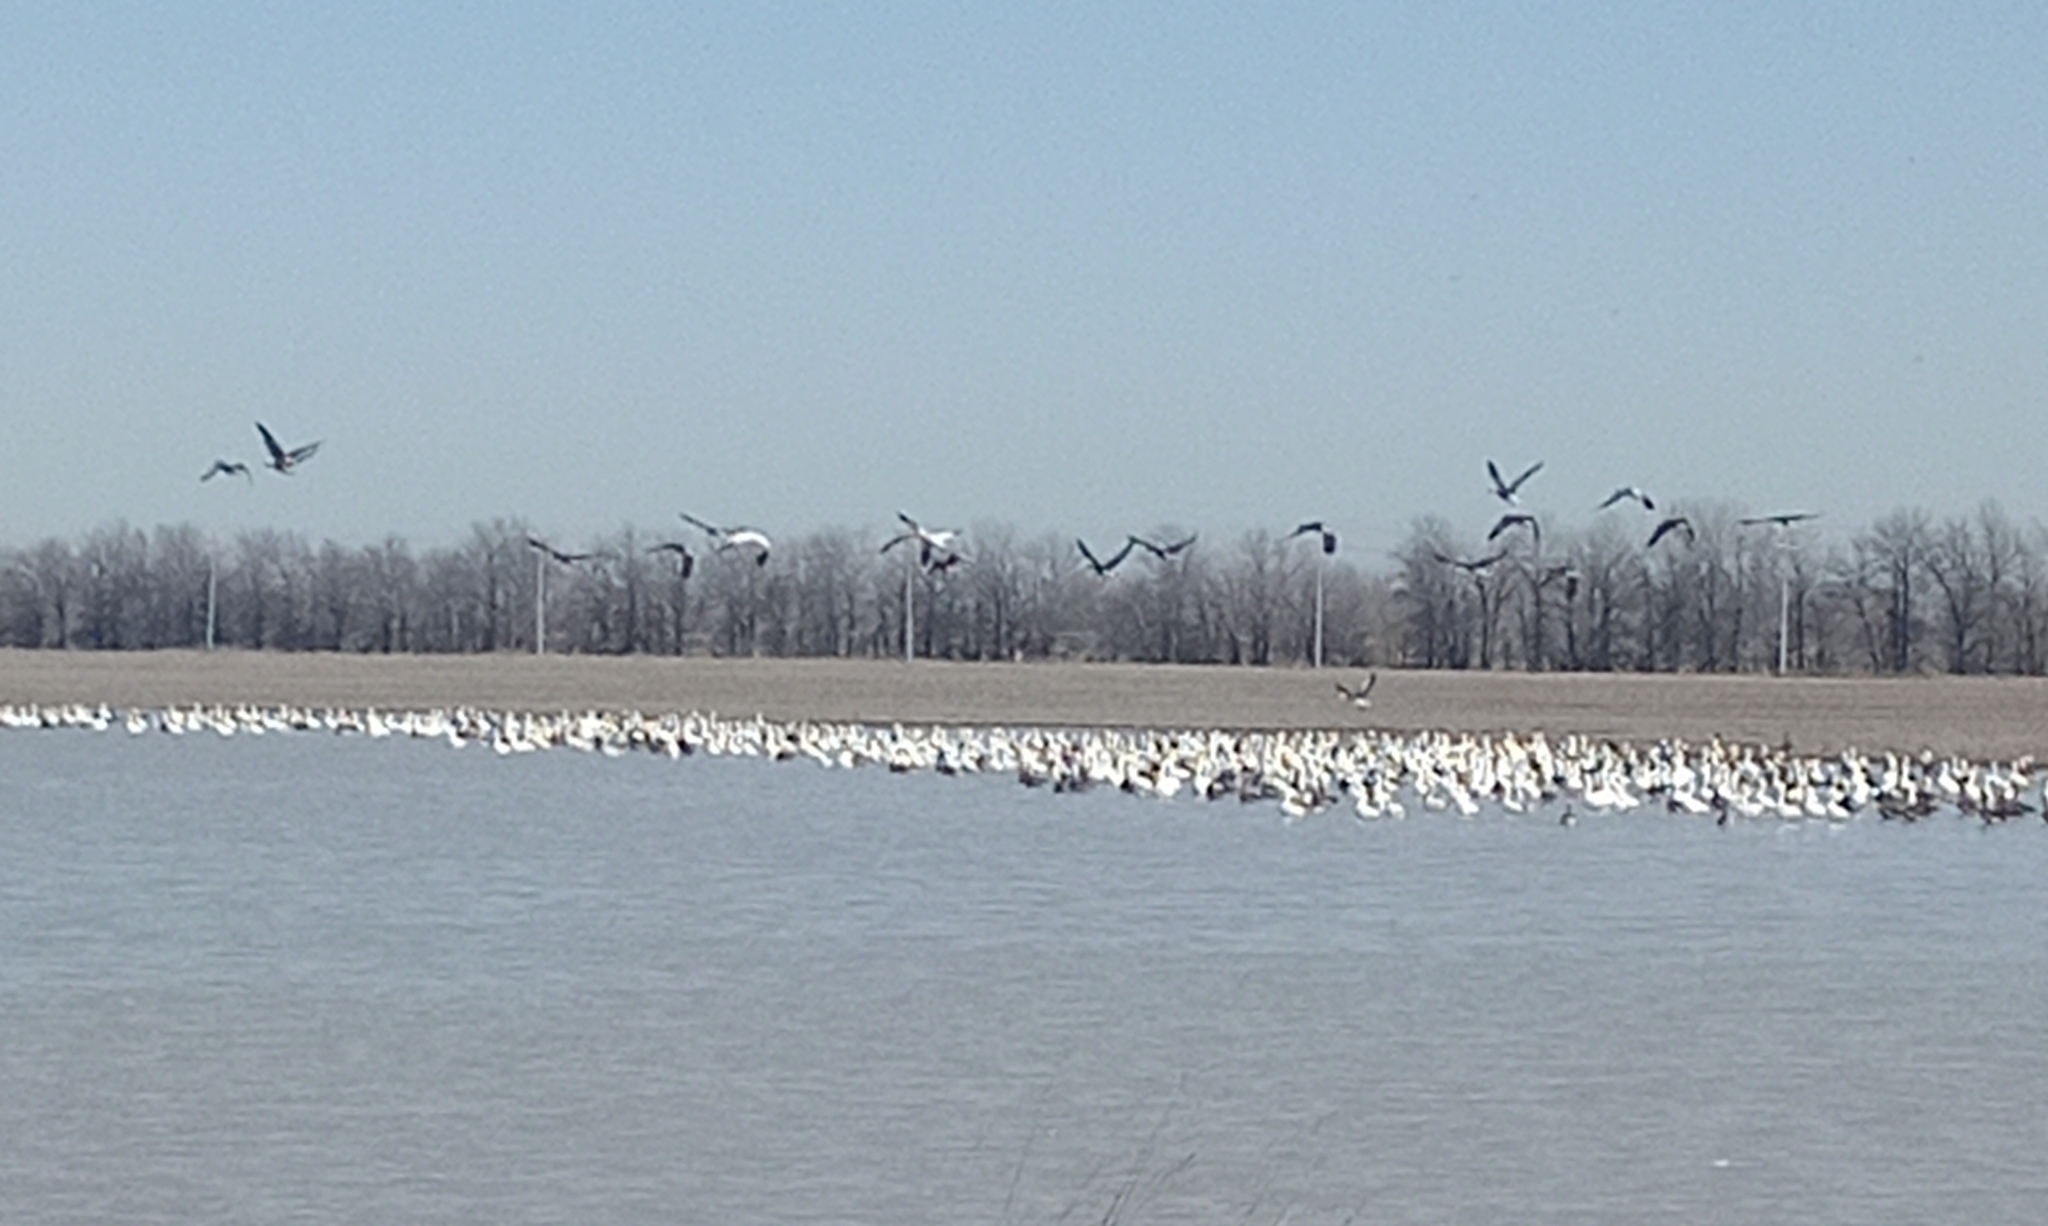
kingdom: Animalia
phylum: Chordata
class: Aves
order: Anseriformes
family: Anatidae
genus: Anser
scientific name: Anser albifrons
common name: Greater white-fronted goose
